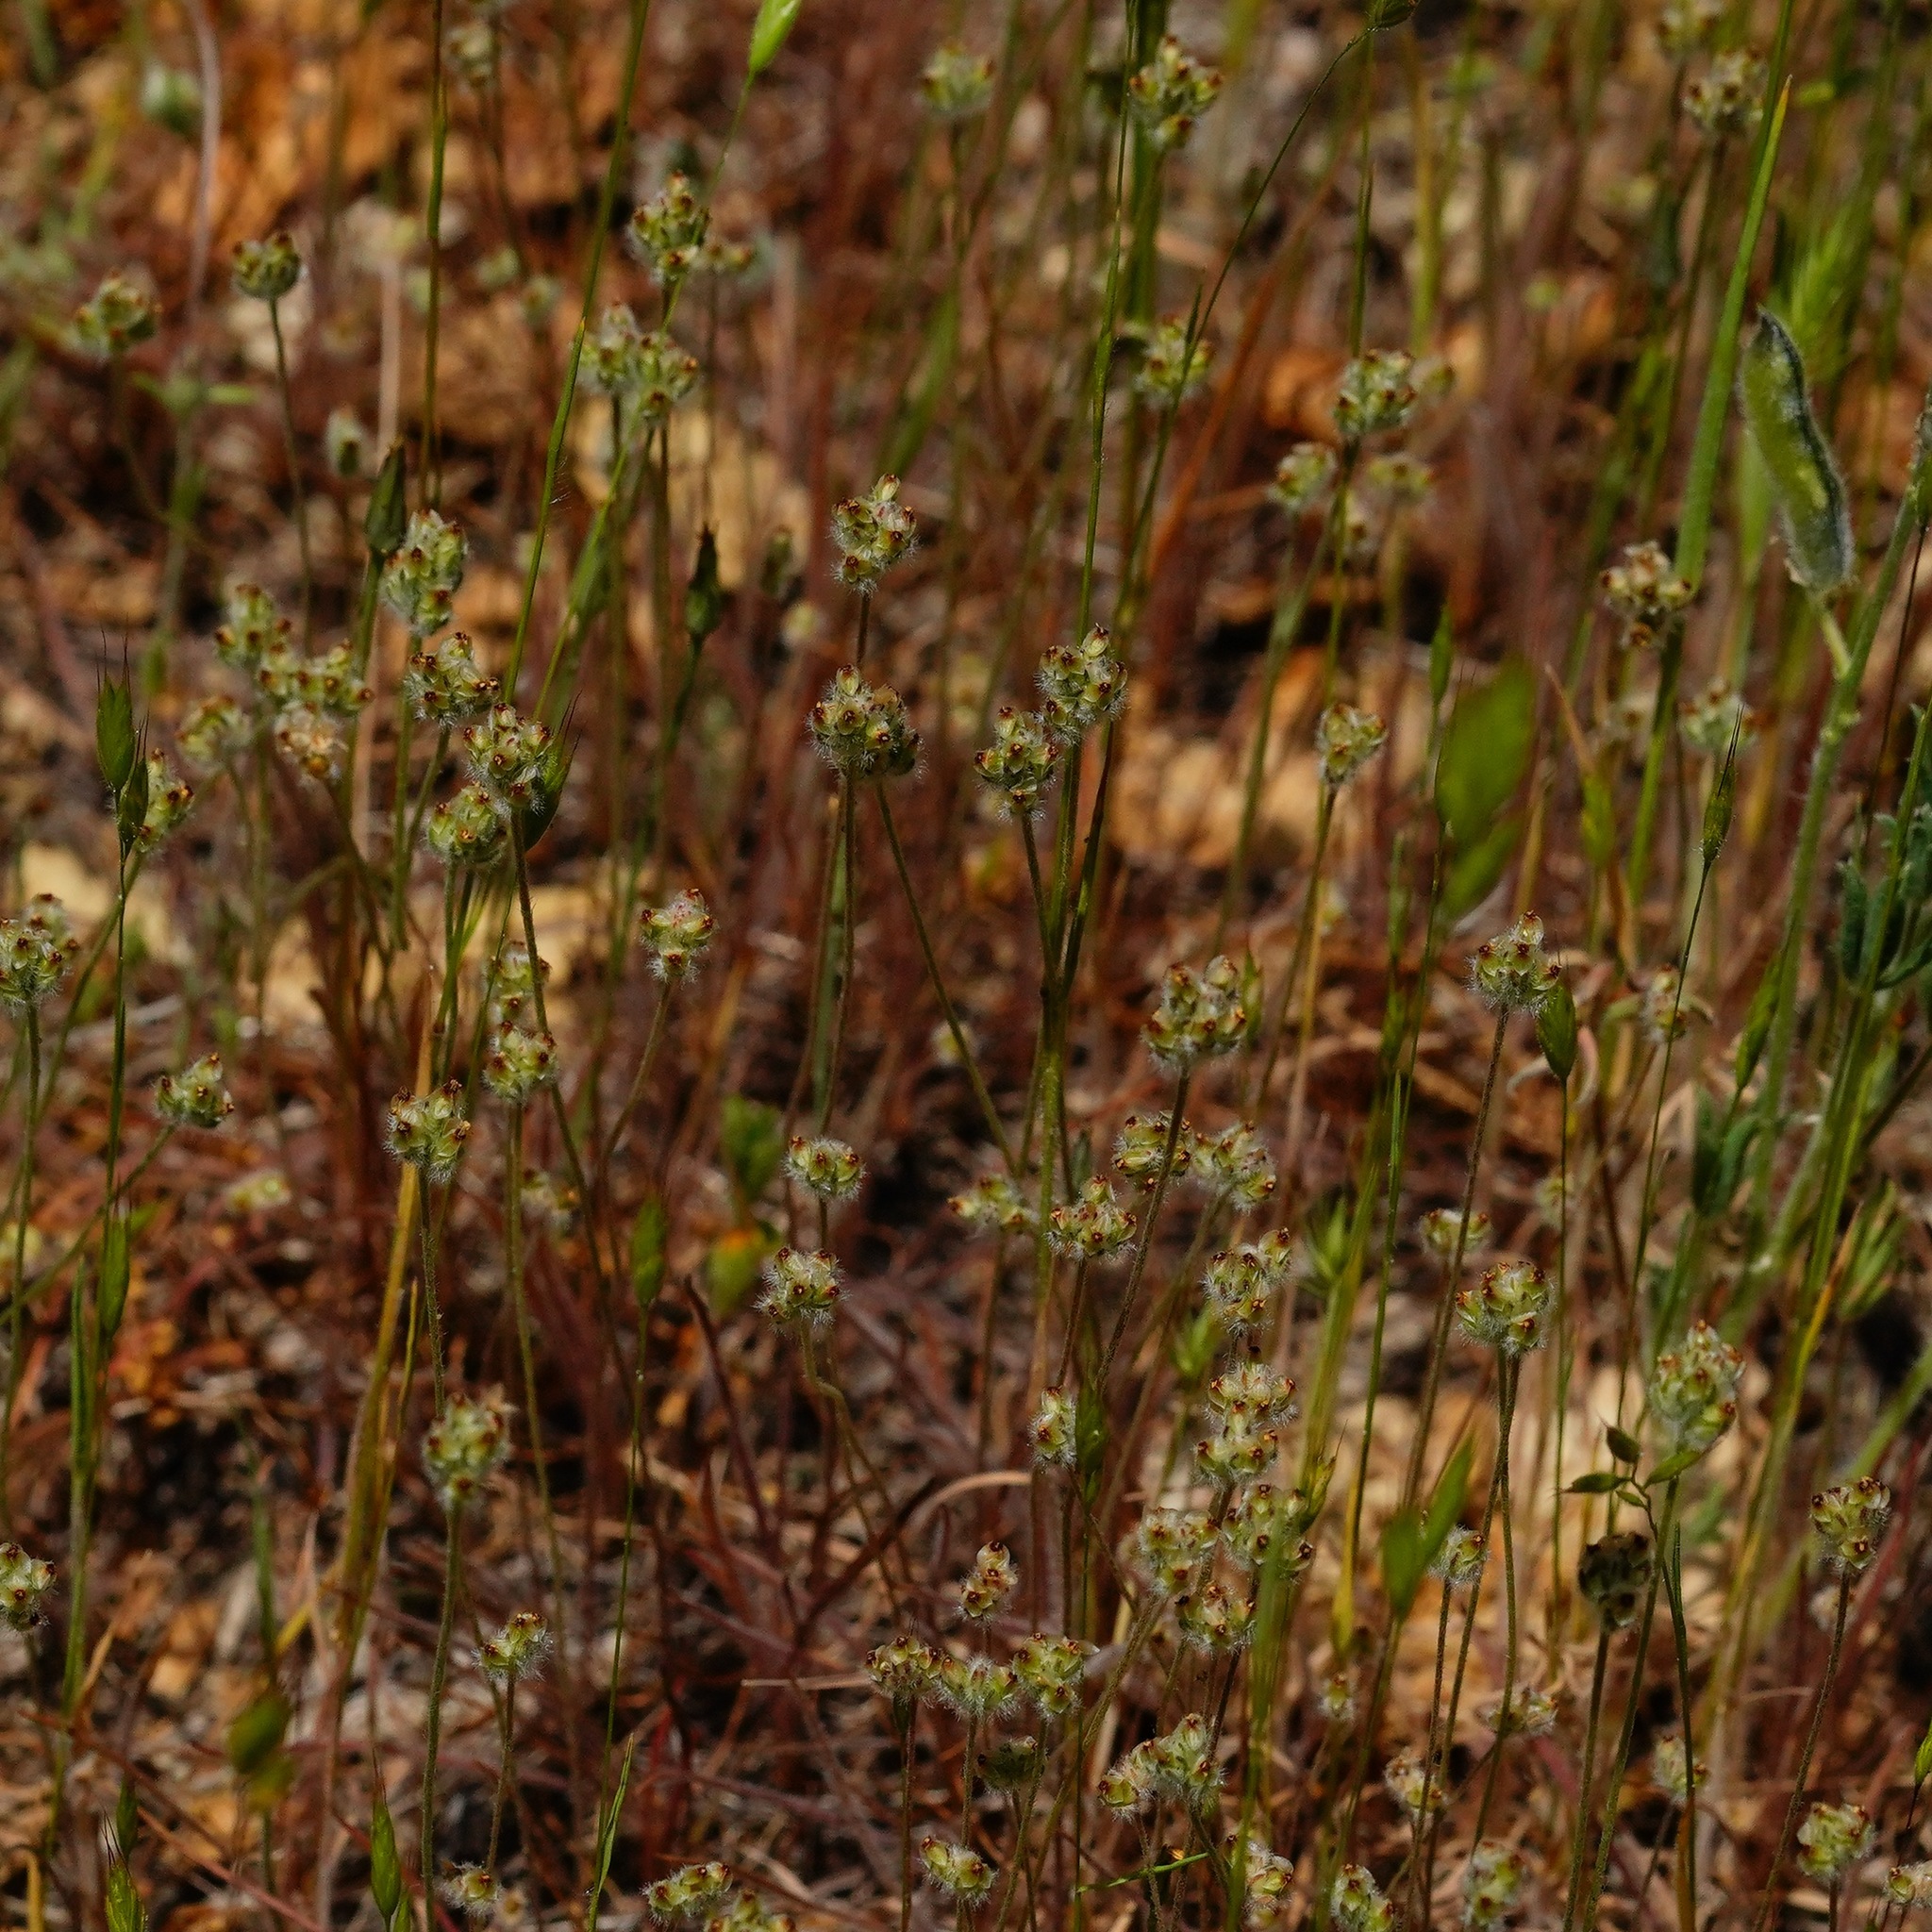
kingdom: Plantae
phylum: Tracheophyta
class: Magnoliopsida
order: Lamiales
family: Plantaginaceae
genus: Plantago
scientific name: Plantago erecta
